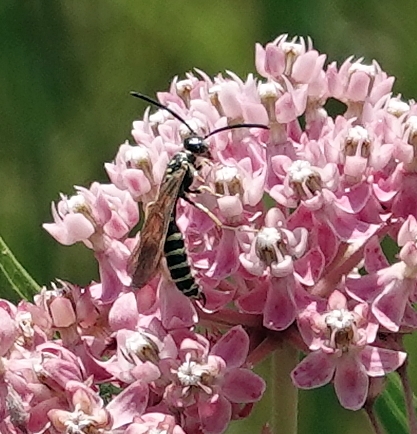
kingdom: Animalia
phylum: Arthropoda
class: Insecta
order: Hymenoptera
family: Tiphiidae
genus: Myzinum
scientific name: Myzinum quinquecinctum
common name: Five-banded thynnid wasp
